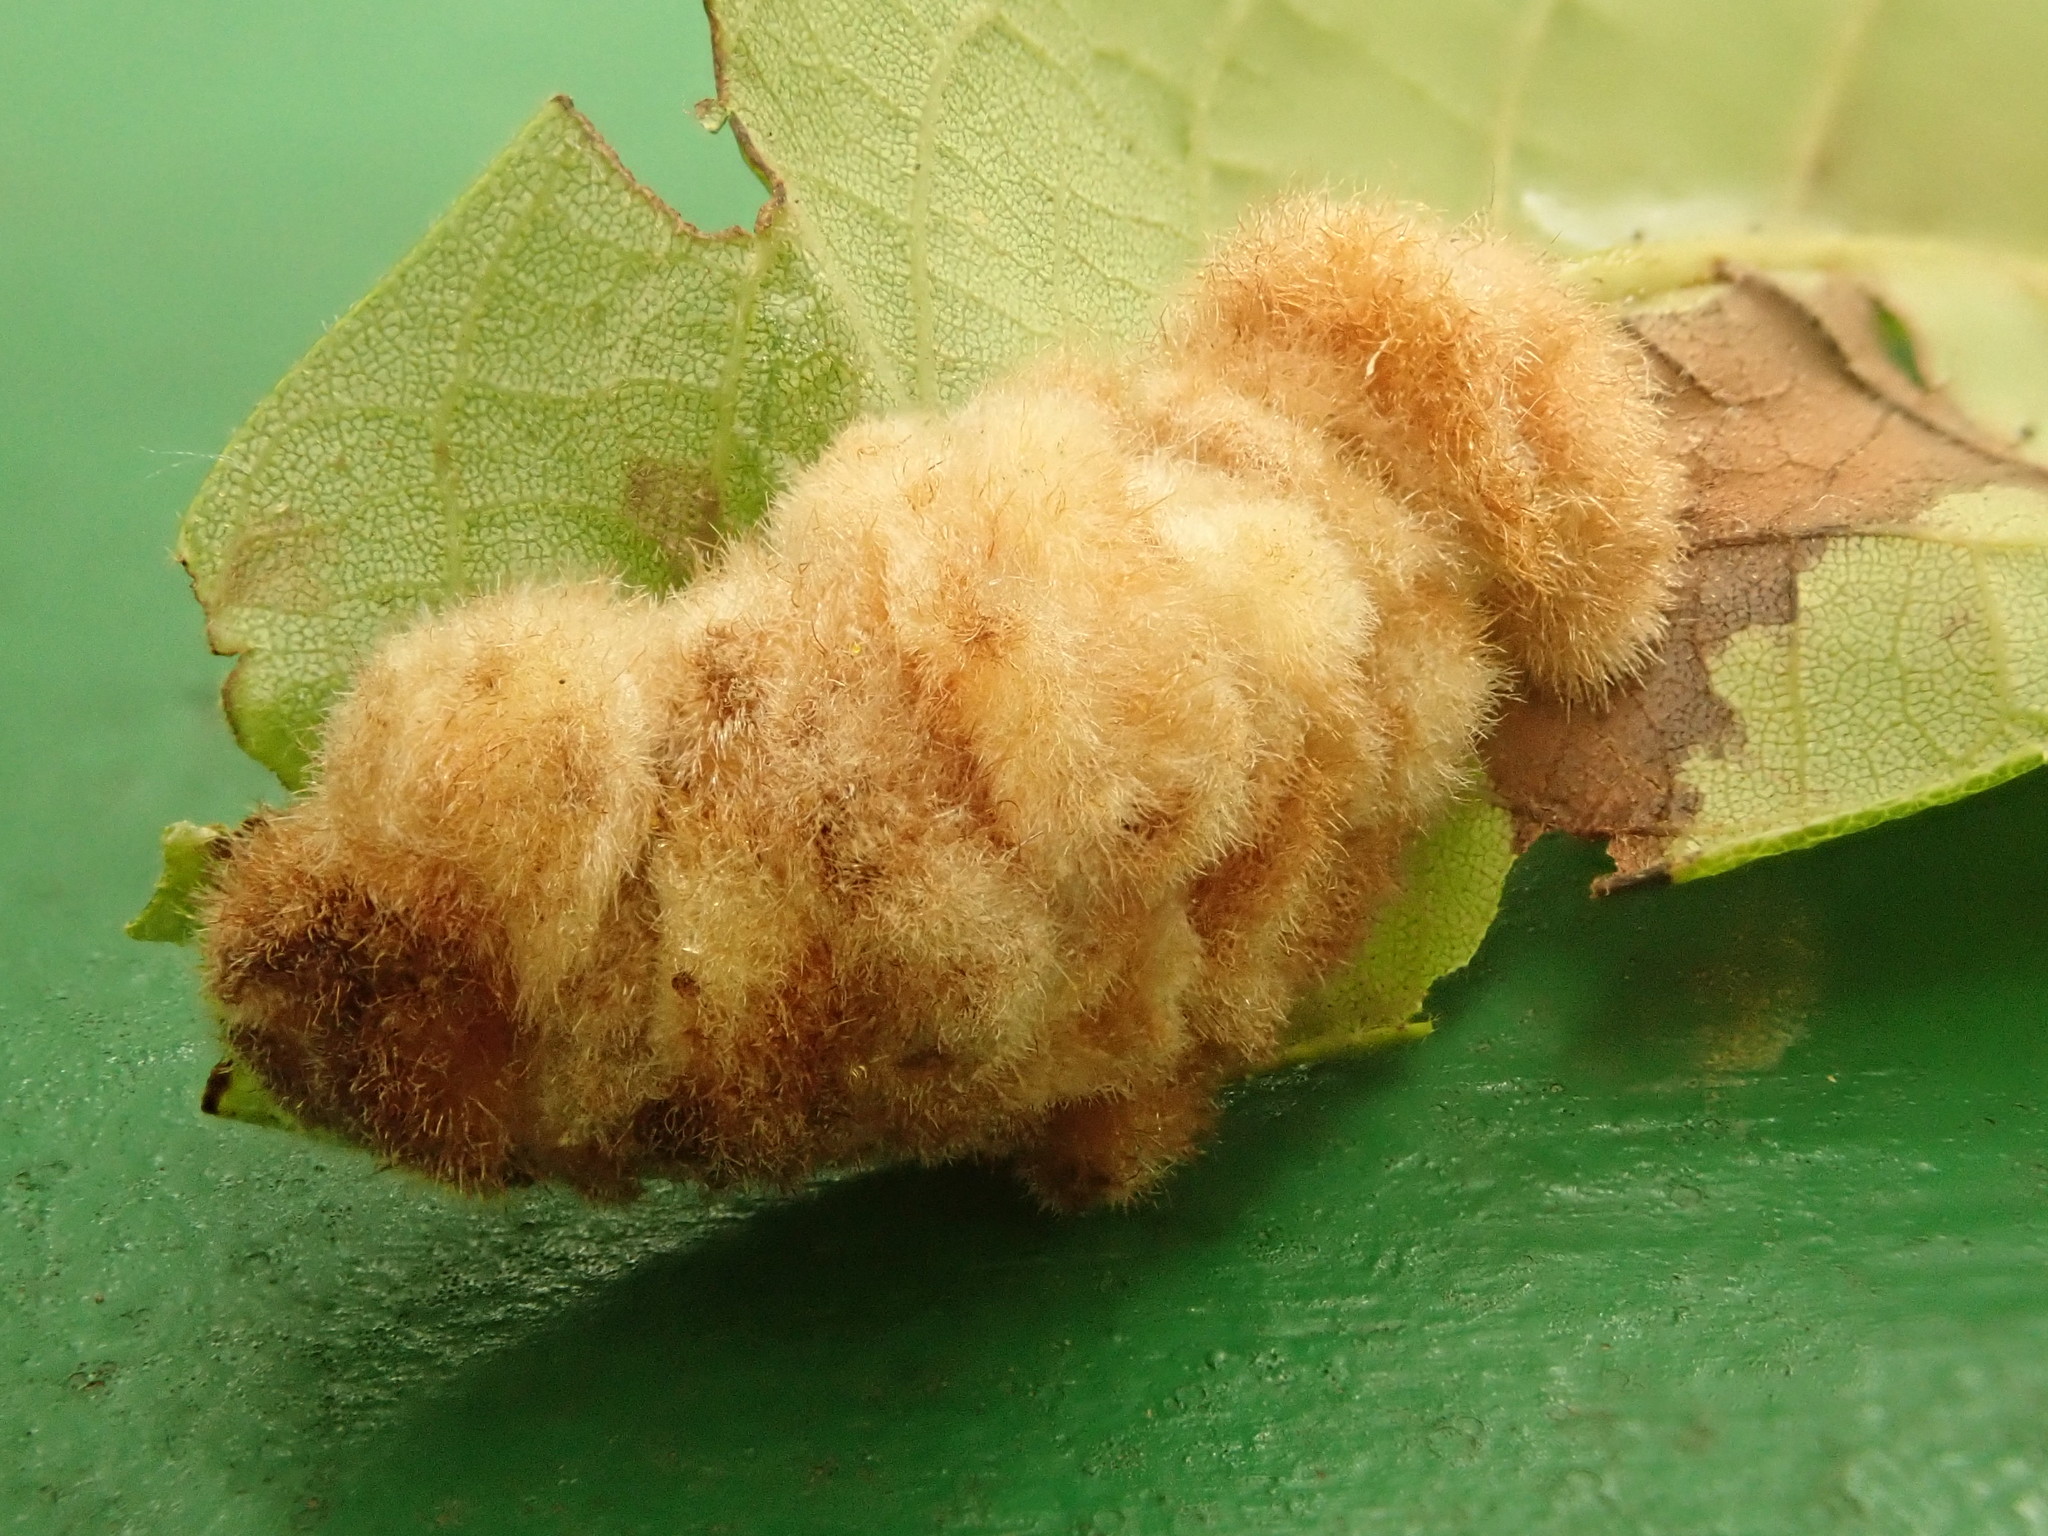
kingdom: Animalia
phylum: Arthropoda
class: Insecta
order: Diptera
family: Cecidomyiidae
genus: Caryomyia
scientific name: Caryomyia aggregata
